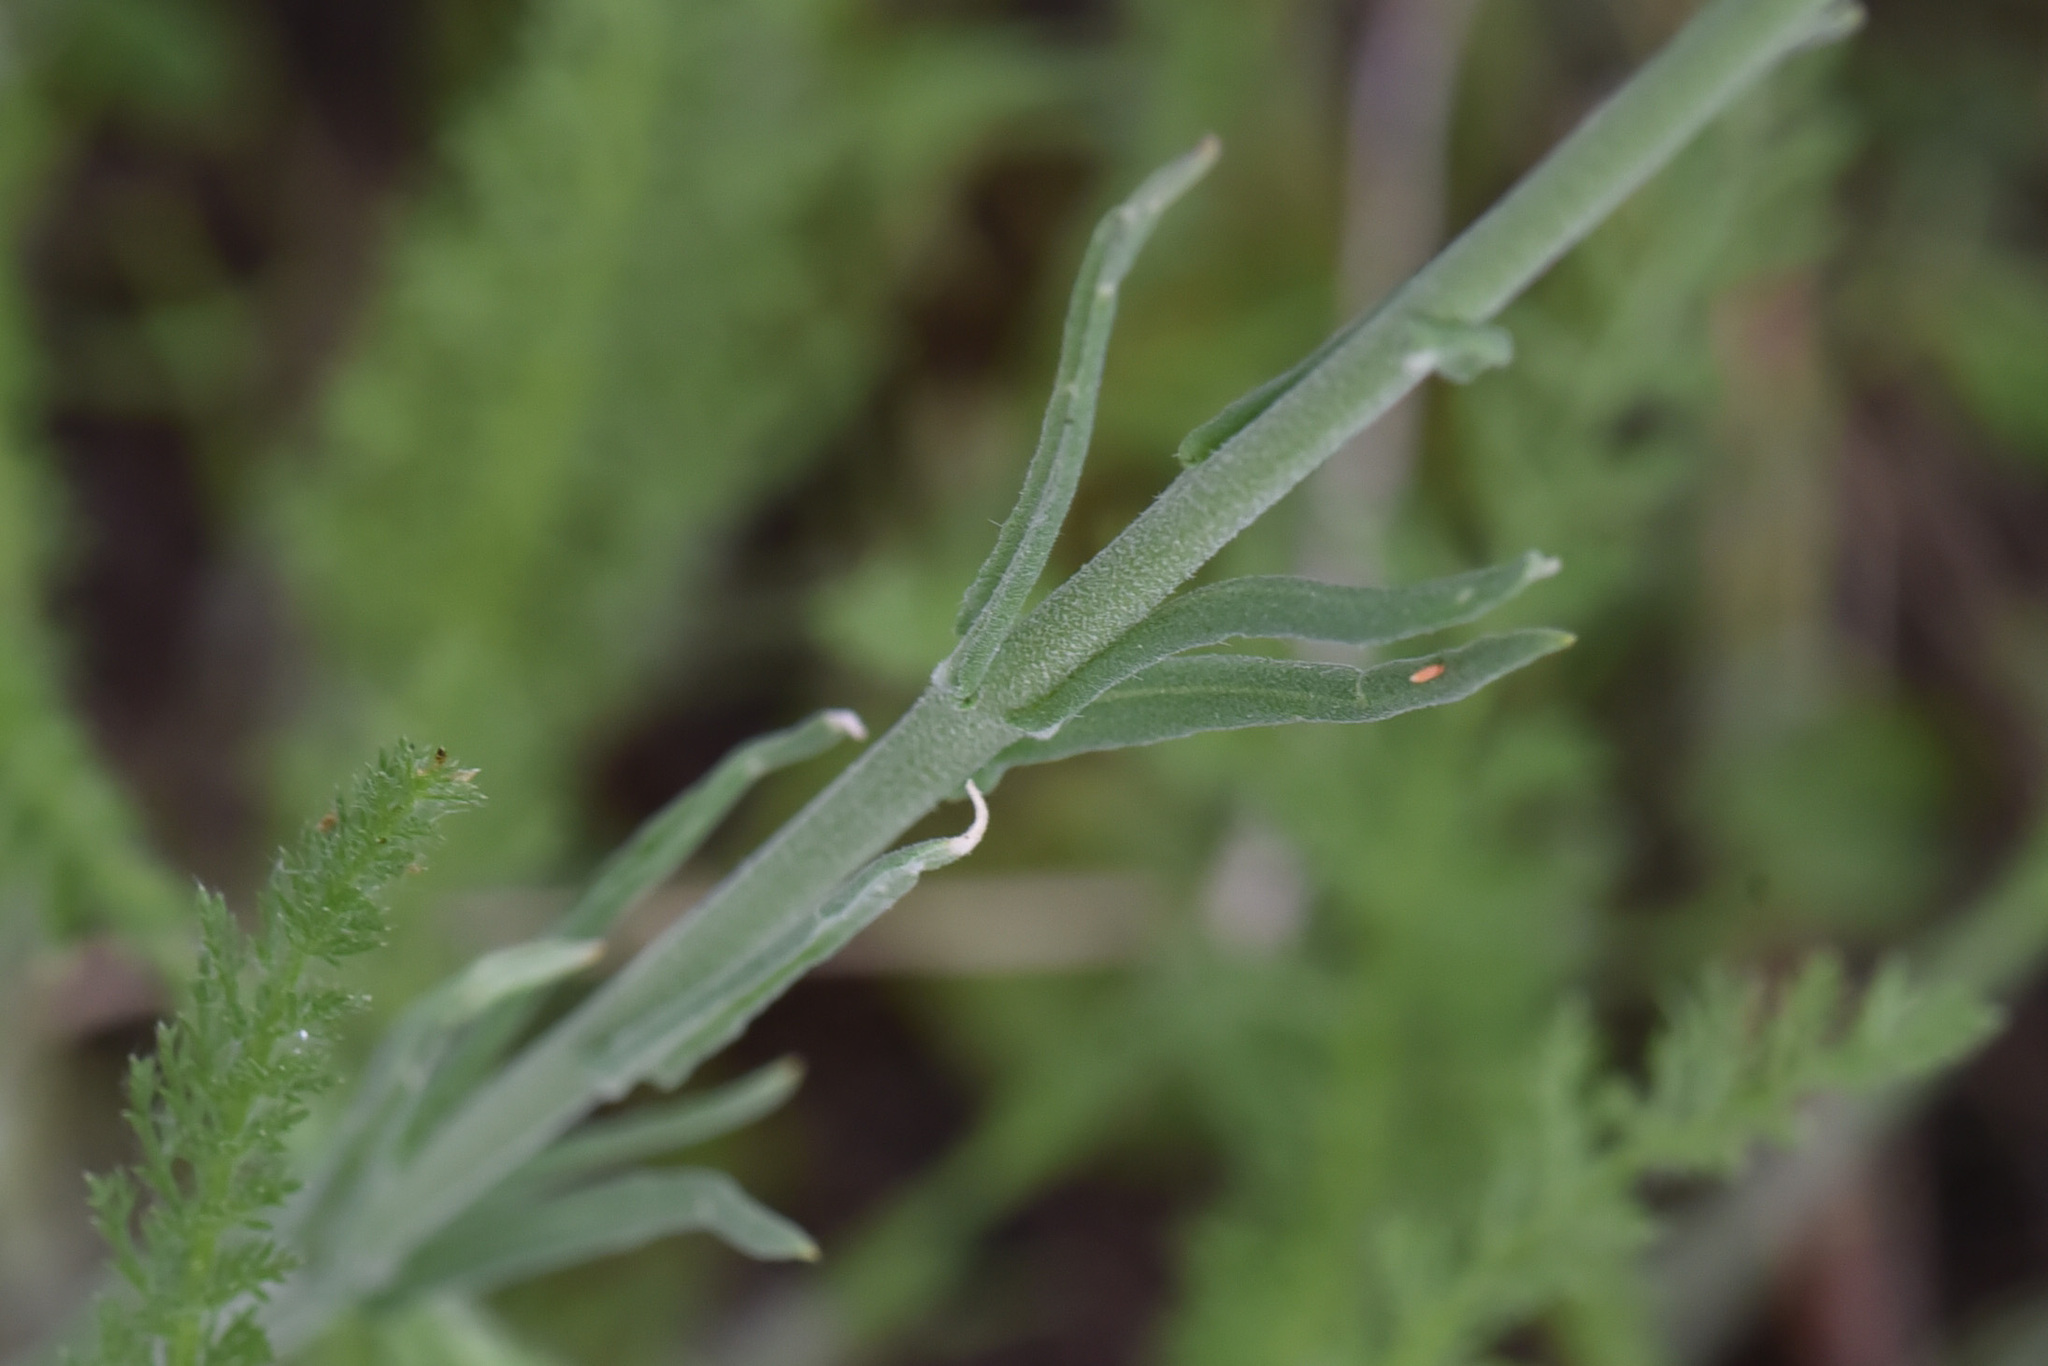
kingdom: Plantae
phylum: Tracheophyta
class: Magnoliopsida
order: Brassicales
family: Brassicaceae
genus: Boechera
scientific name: Boechera retrofracta
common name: Dangling suncress
